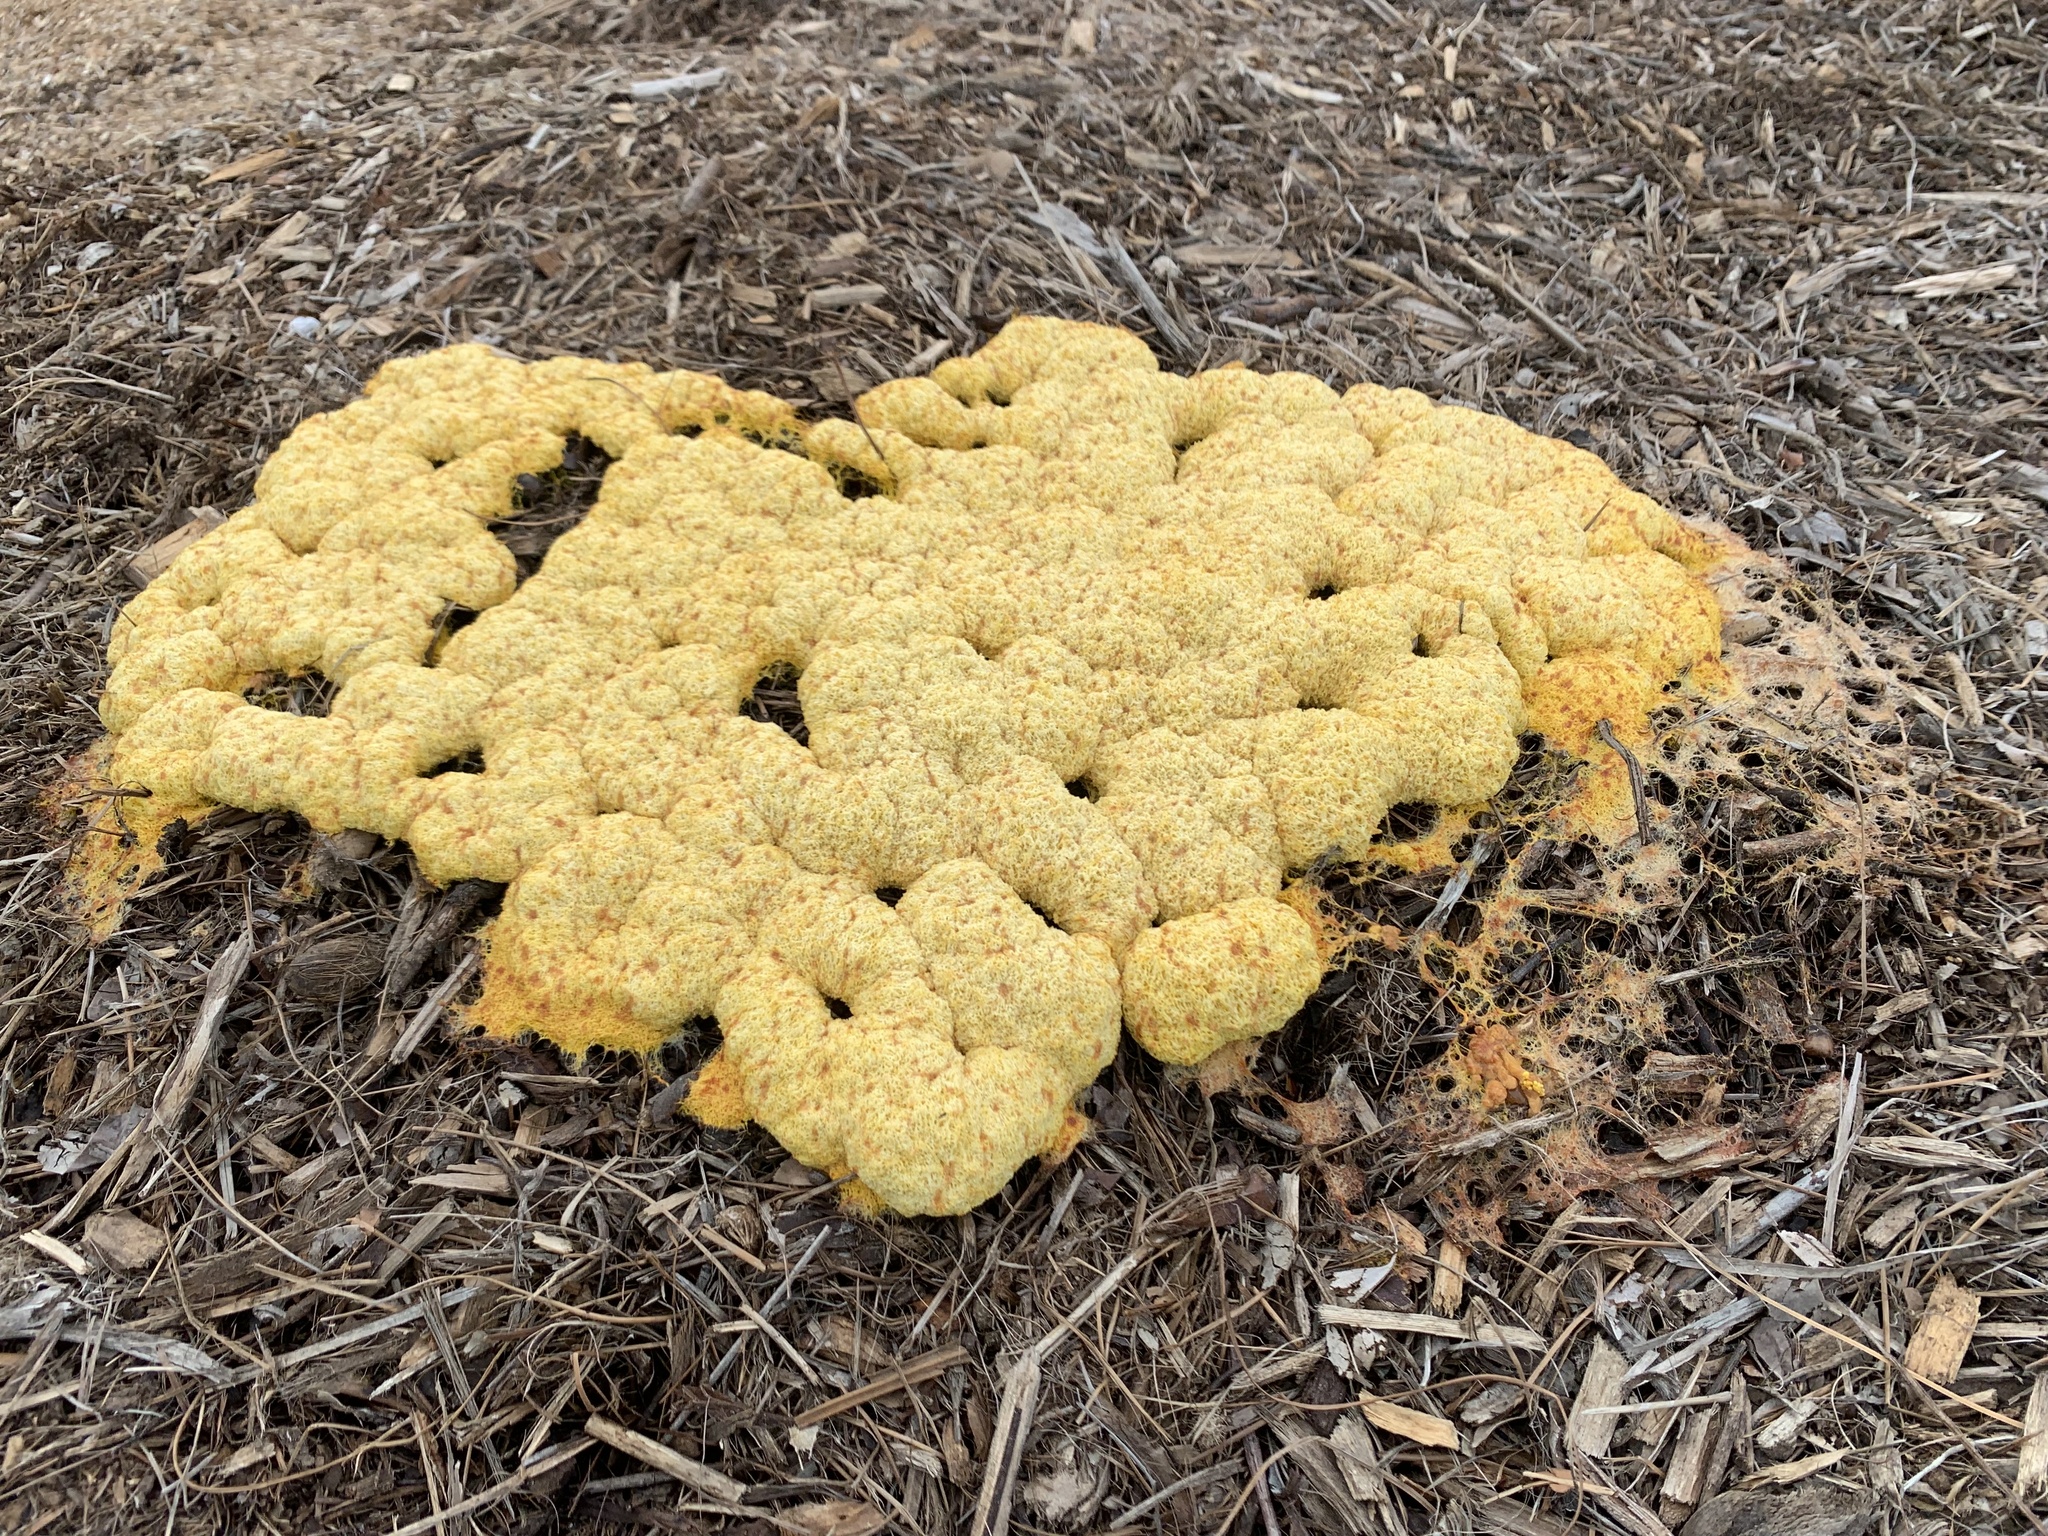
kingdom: Protozoa
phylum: Mycetozoa
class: Myxomycetes
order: Physarales
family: Physaraceae
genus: Fuligo
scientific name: Fuligo septica
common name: Dog vomit slime mold
